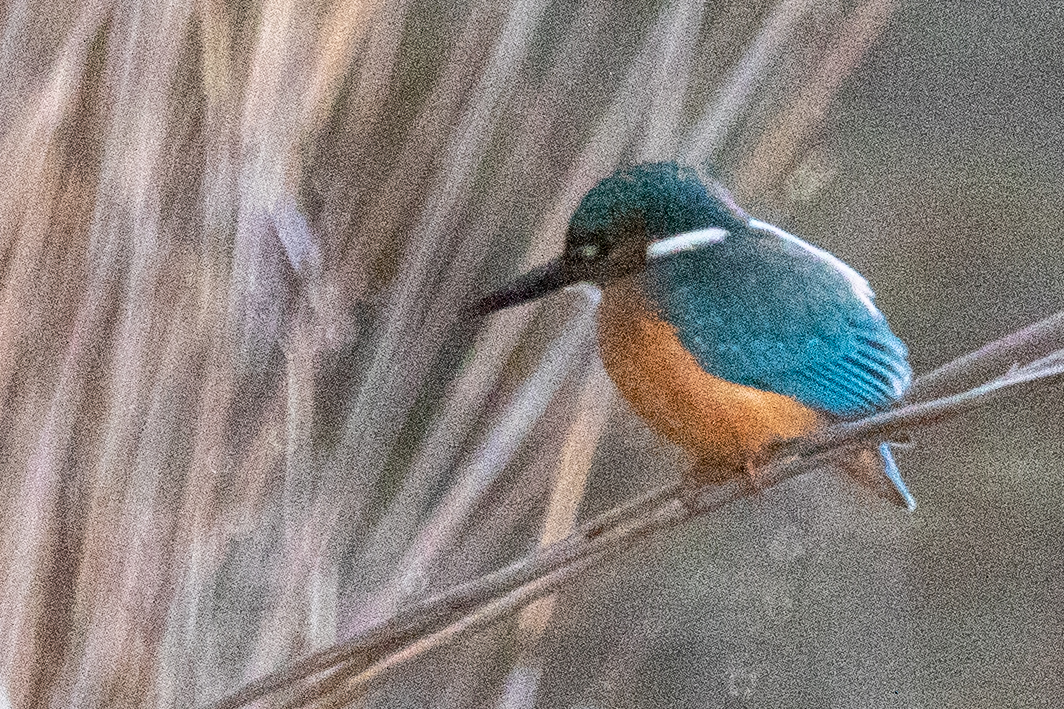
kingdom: Animalia
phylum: Chordata
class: Aves
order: Coraciiformes
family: Alcedinidae
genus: Alcedo
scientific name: Alcedo atthis
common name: Common kingfisher
